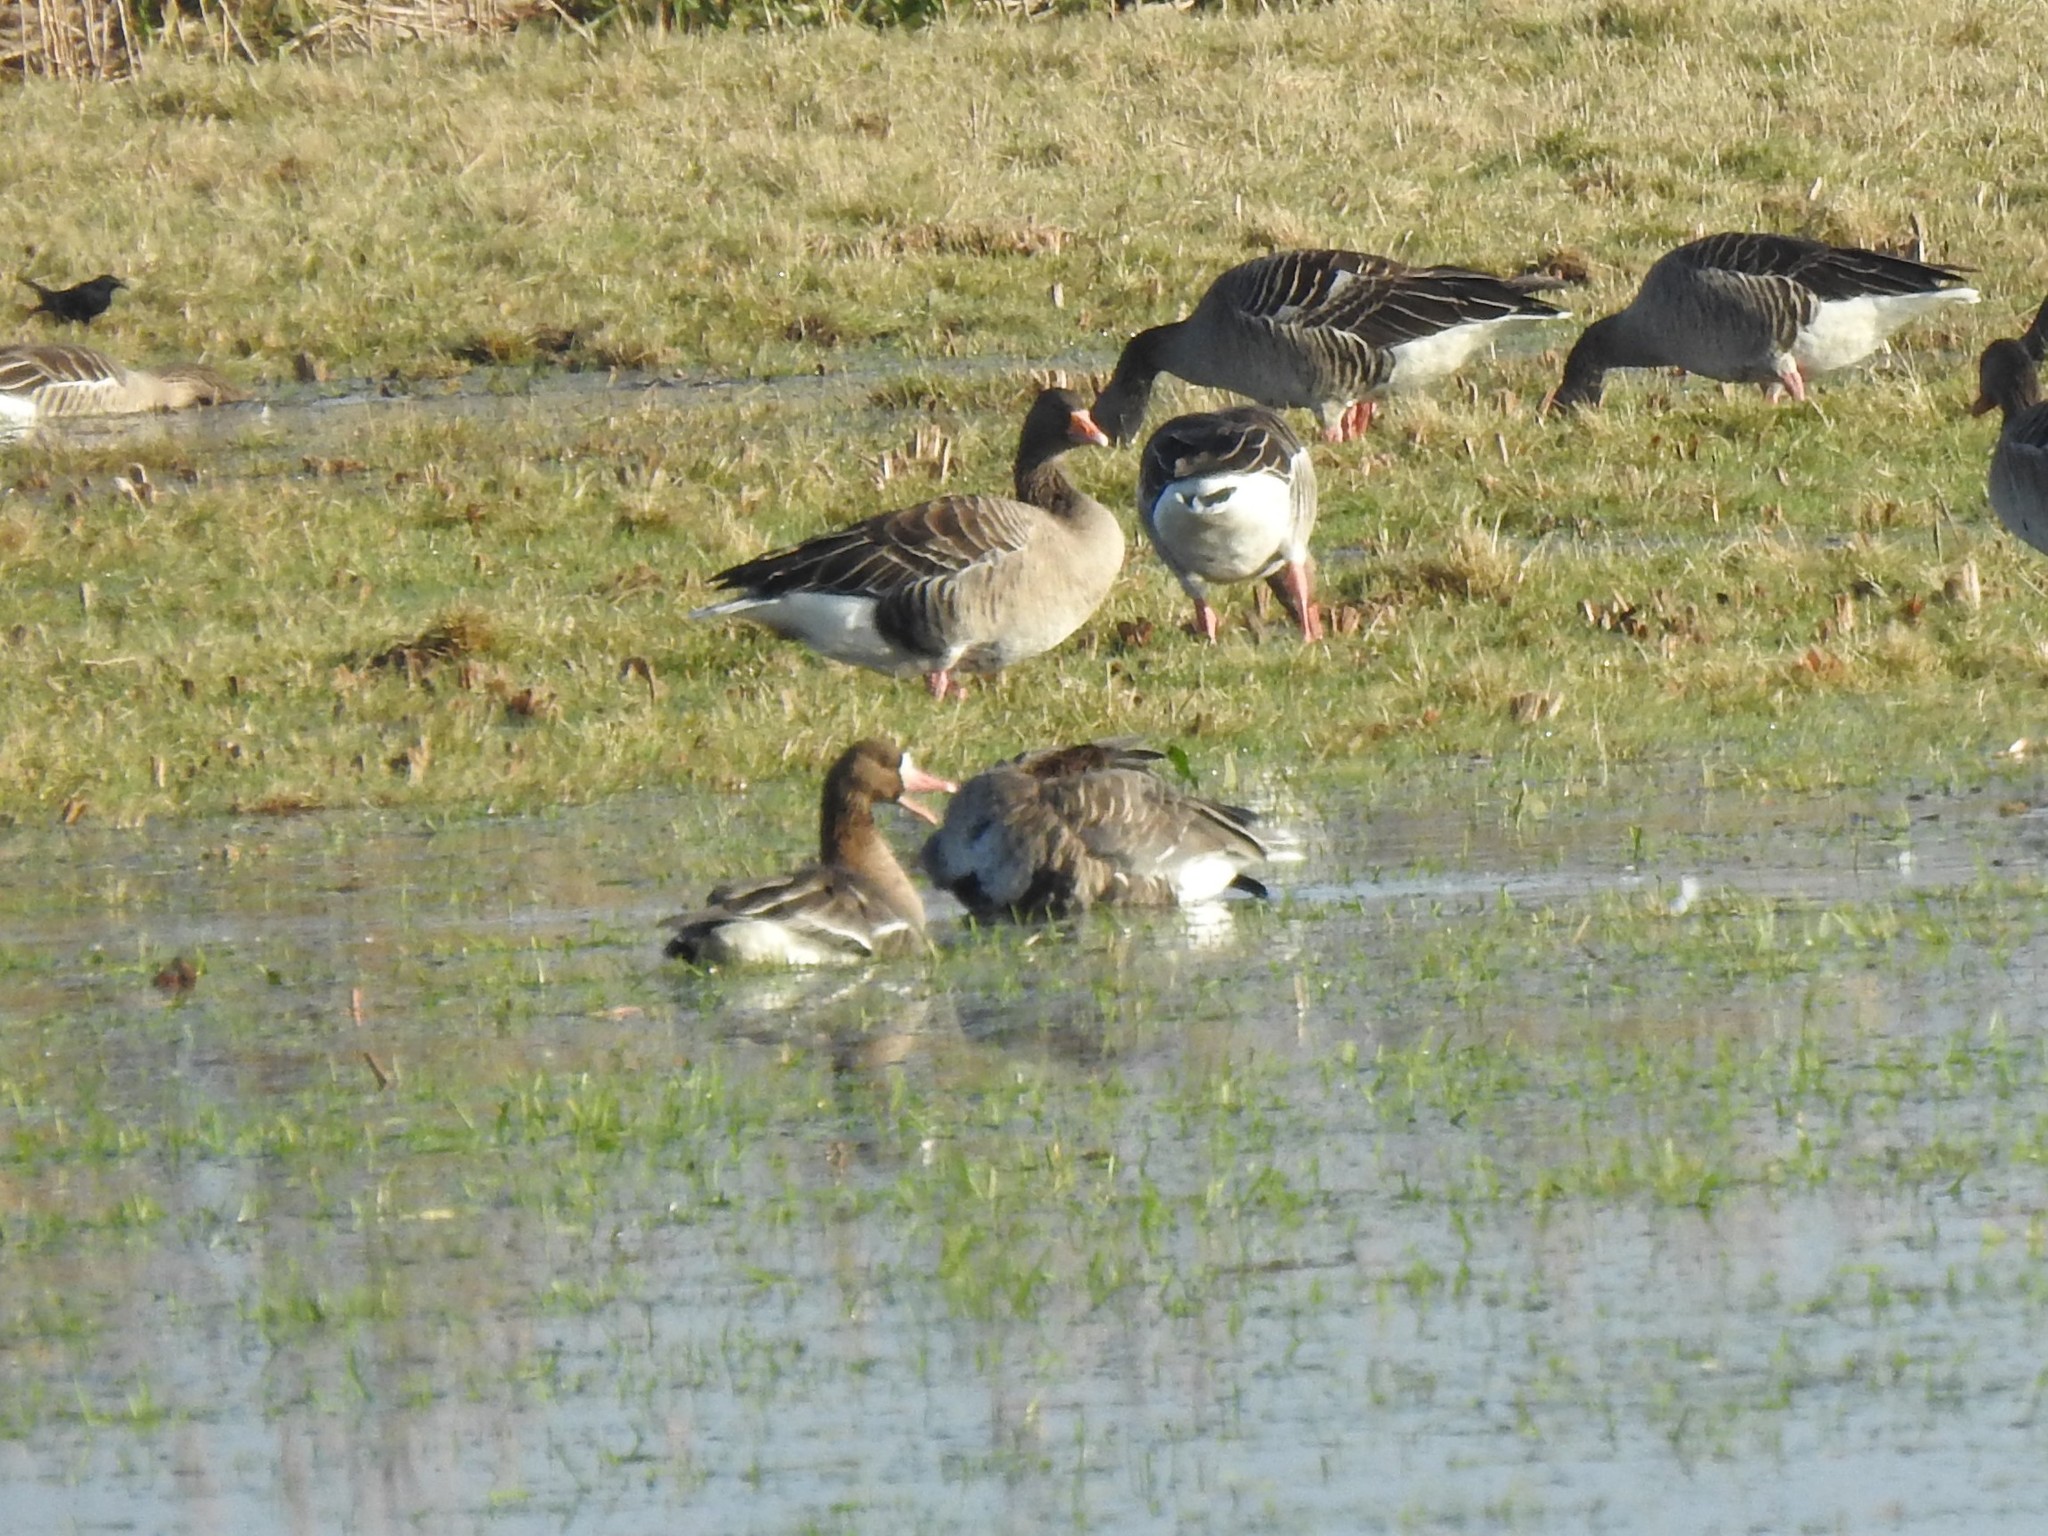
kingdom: Animalia
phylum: Chordata
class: Aves
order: Anseriformes
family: Anatidae
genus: Anser
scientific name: Anser albifrons
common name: Greater white-fronted goose
